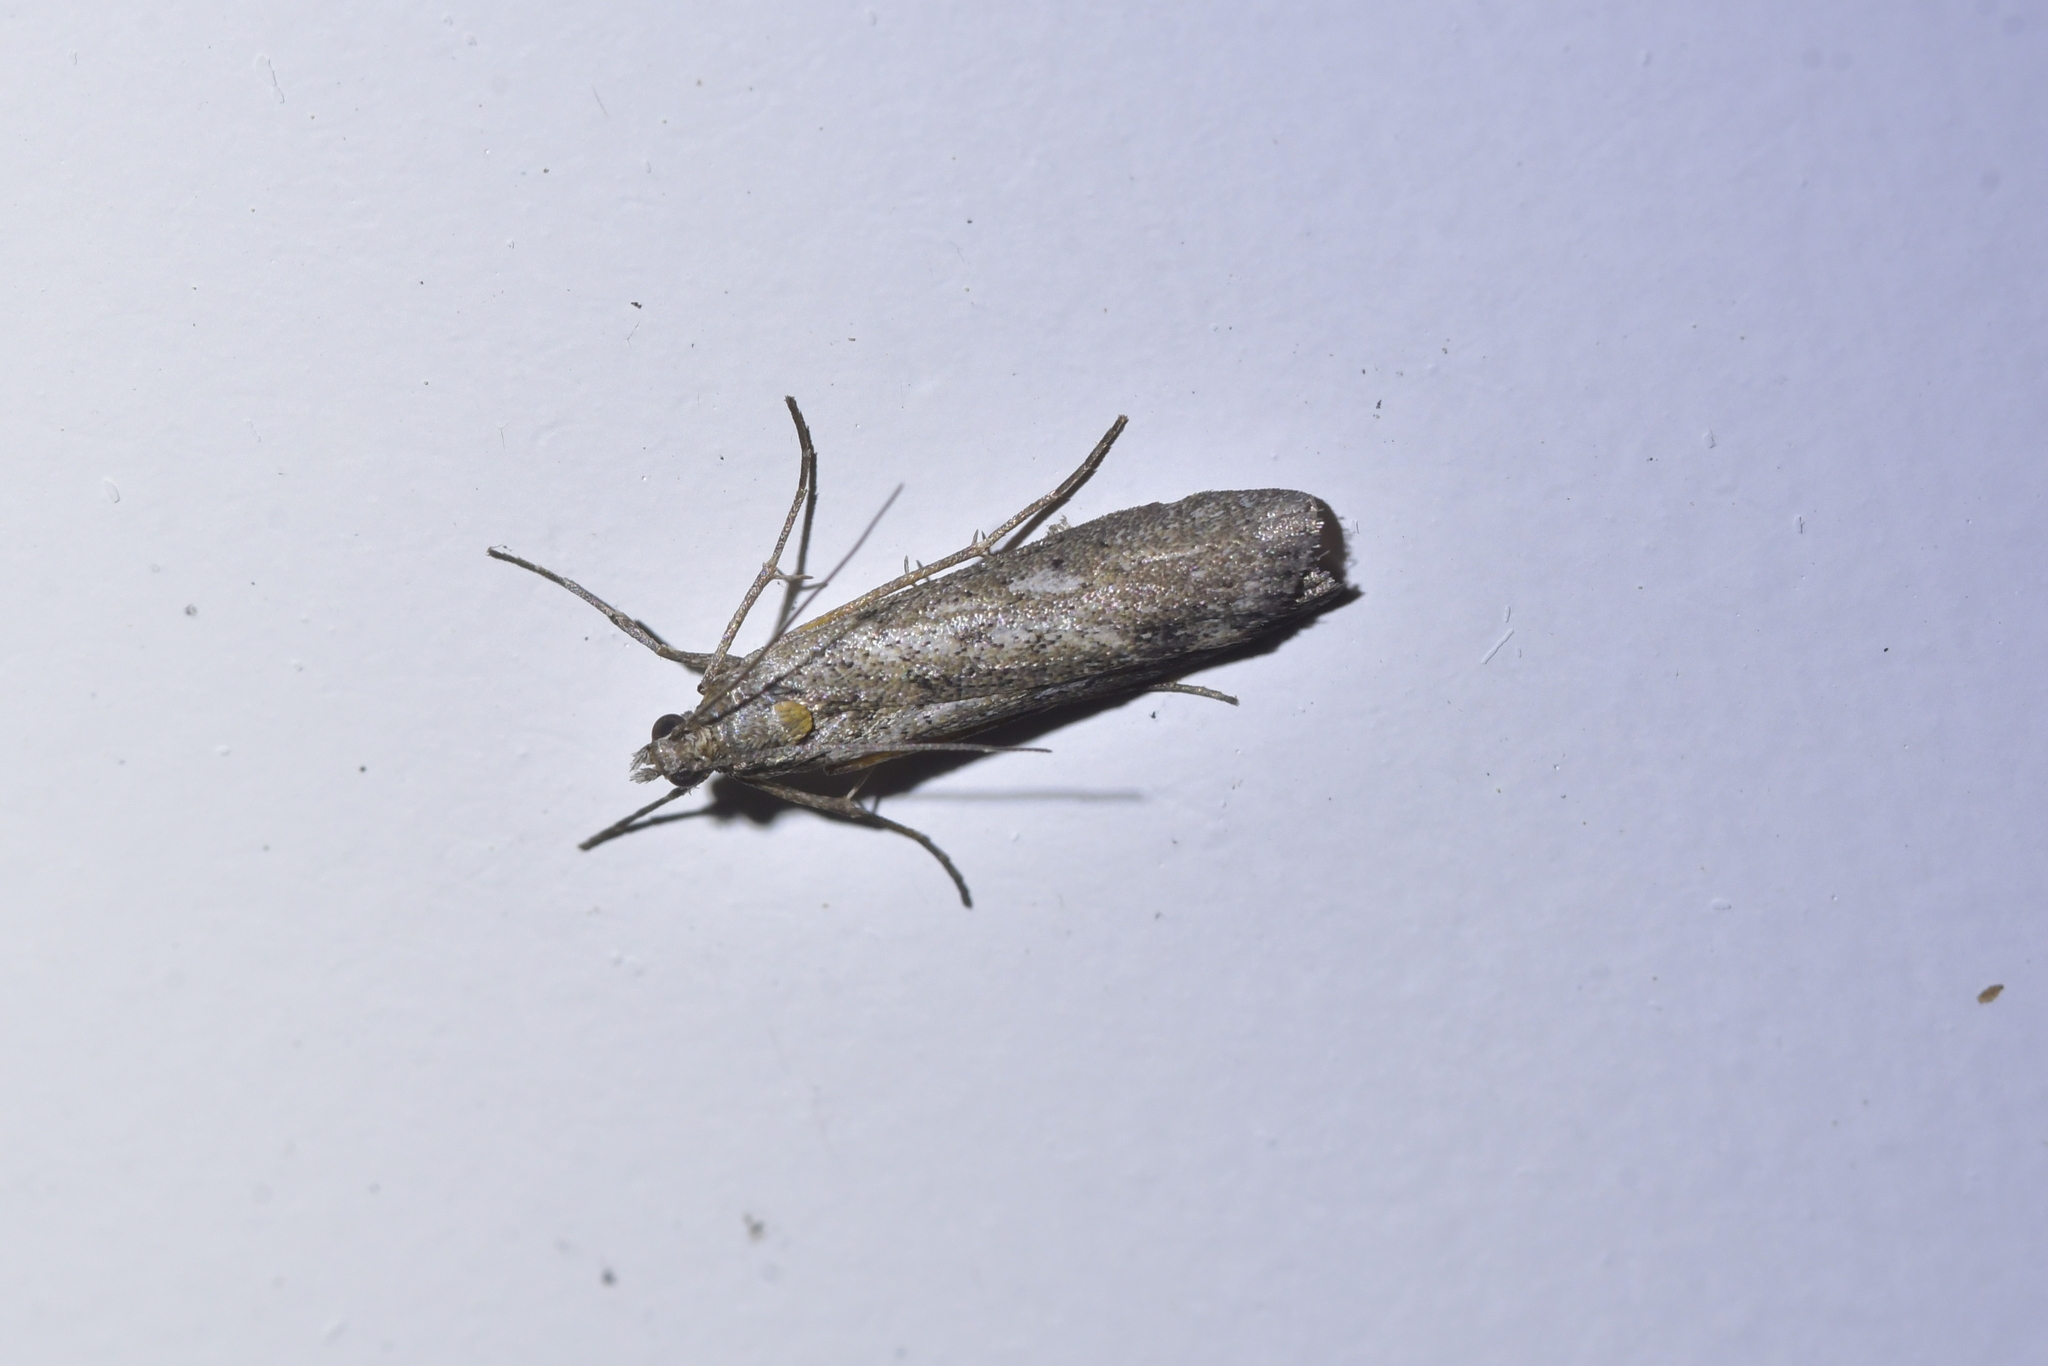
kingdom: Animalia
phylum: Arthropoda
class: Insecta
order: Lepidoptera
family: Crambidae
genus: Eudonia
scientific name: Eudonia leptalea
